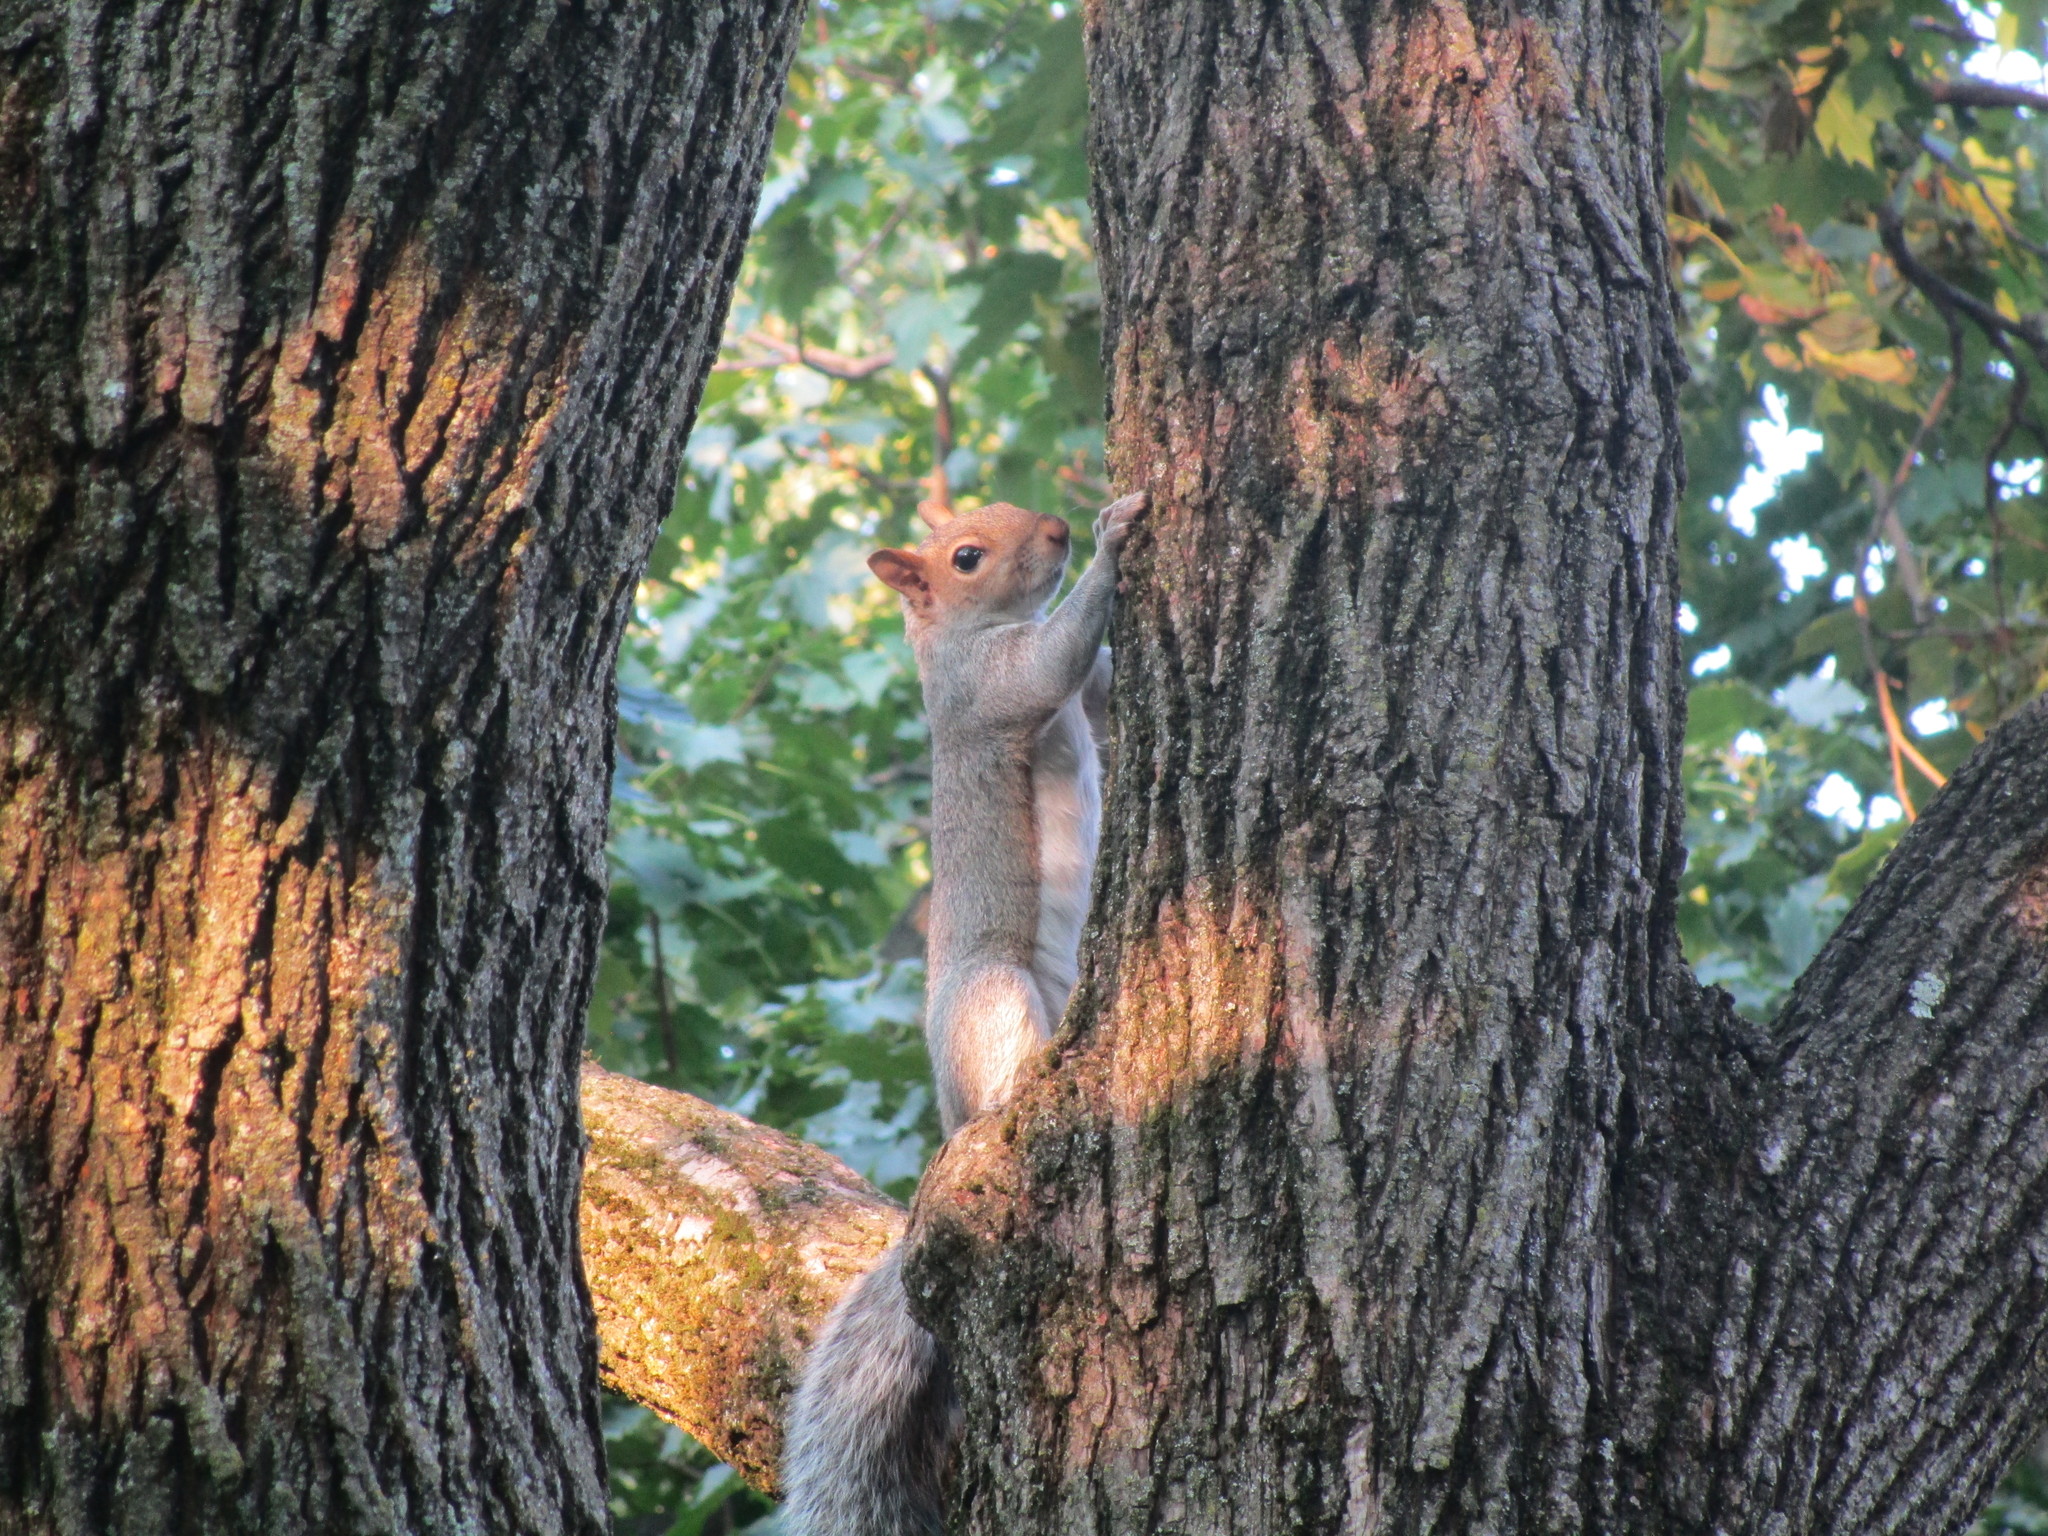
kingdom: Animalia
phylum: Chordata
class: Mammalia
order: Rodentia
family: Sciuridae
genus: Sciurus
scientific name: Sciurus carolinensis
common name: Eastern gray squirrel
